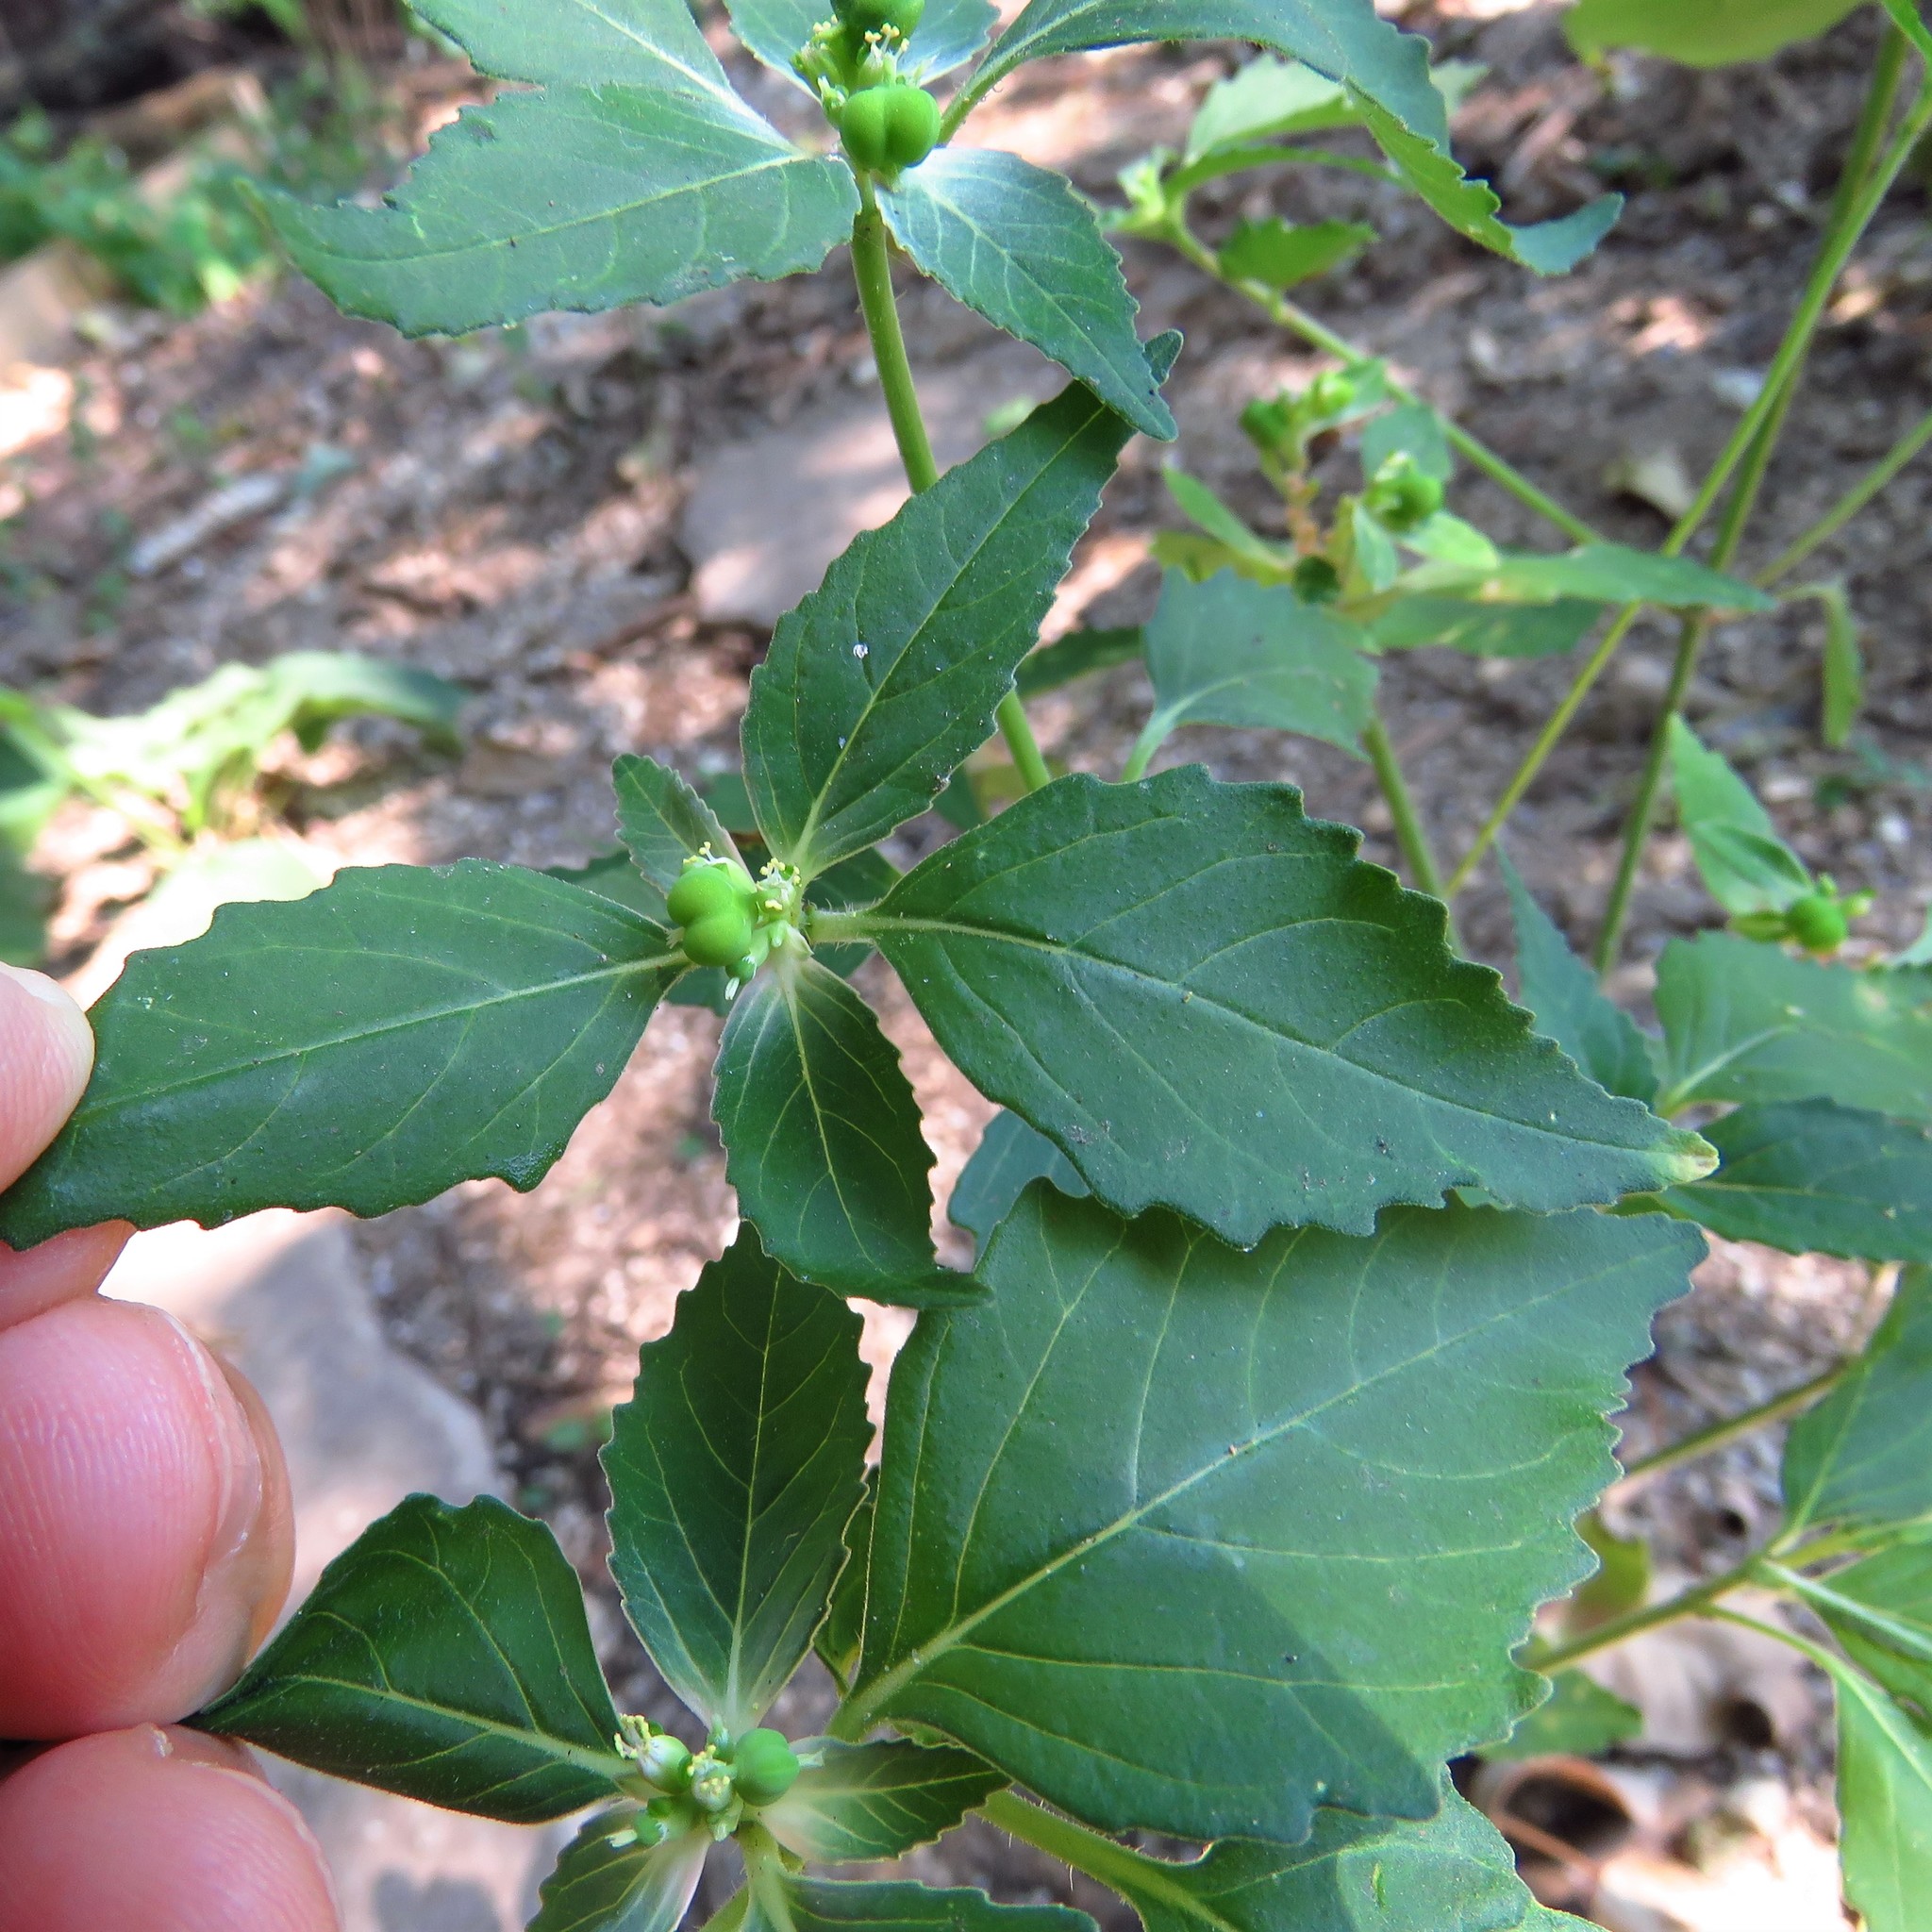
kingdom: Plantae
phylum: Tracheophyta
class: Magnoliopsida
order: Malpighiales
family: Euphorbiaceae
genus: Euphorbia
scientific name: Euphorbia dentata
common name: Dentate spurge
